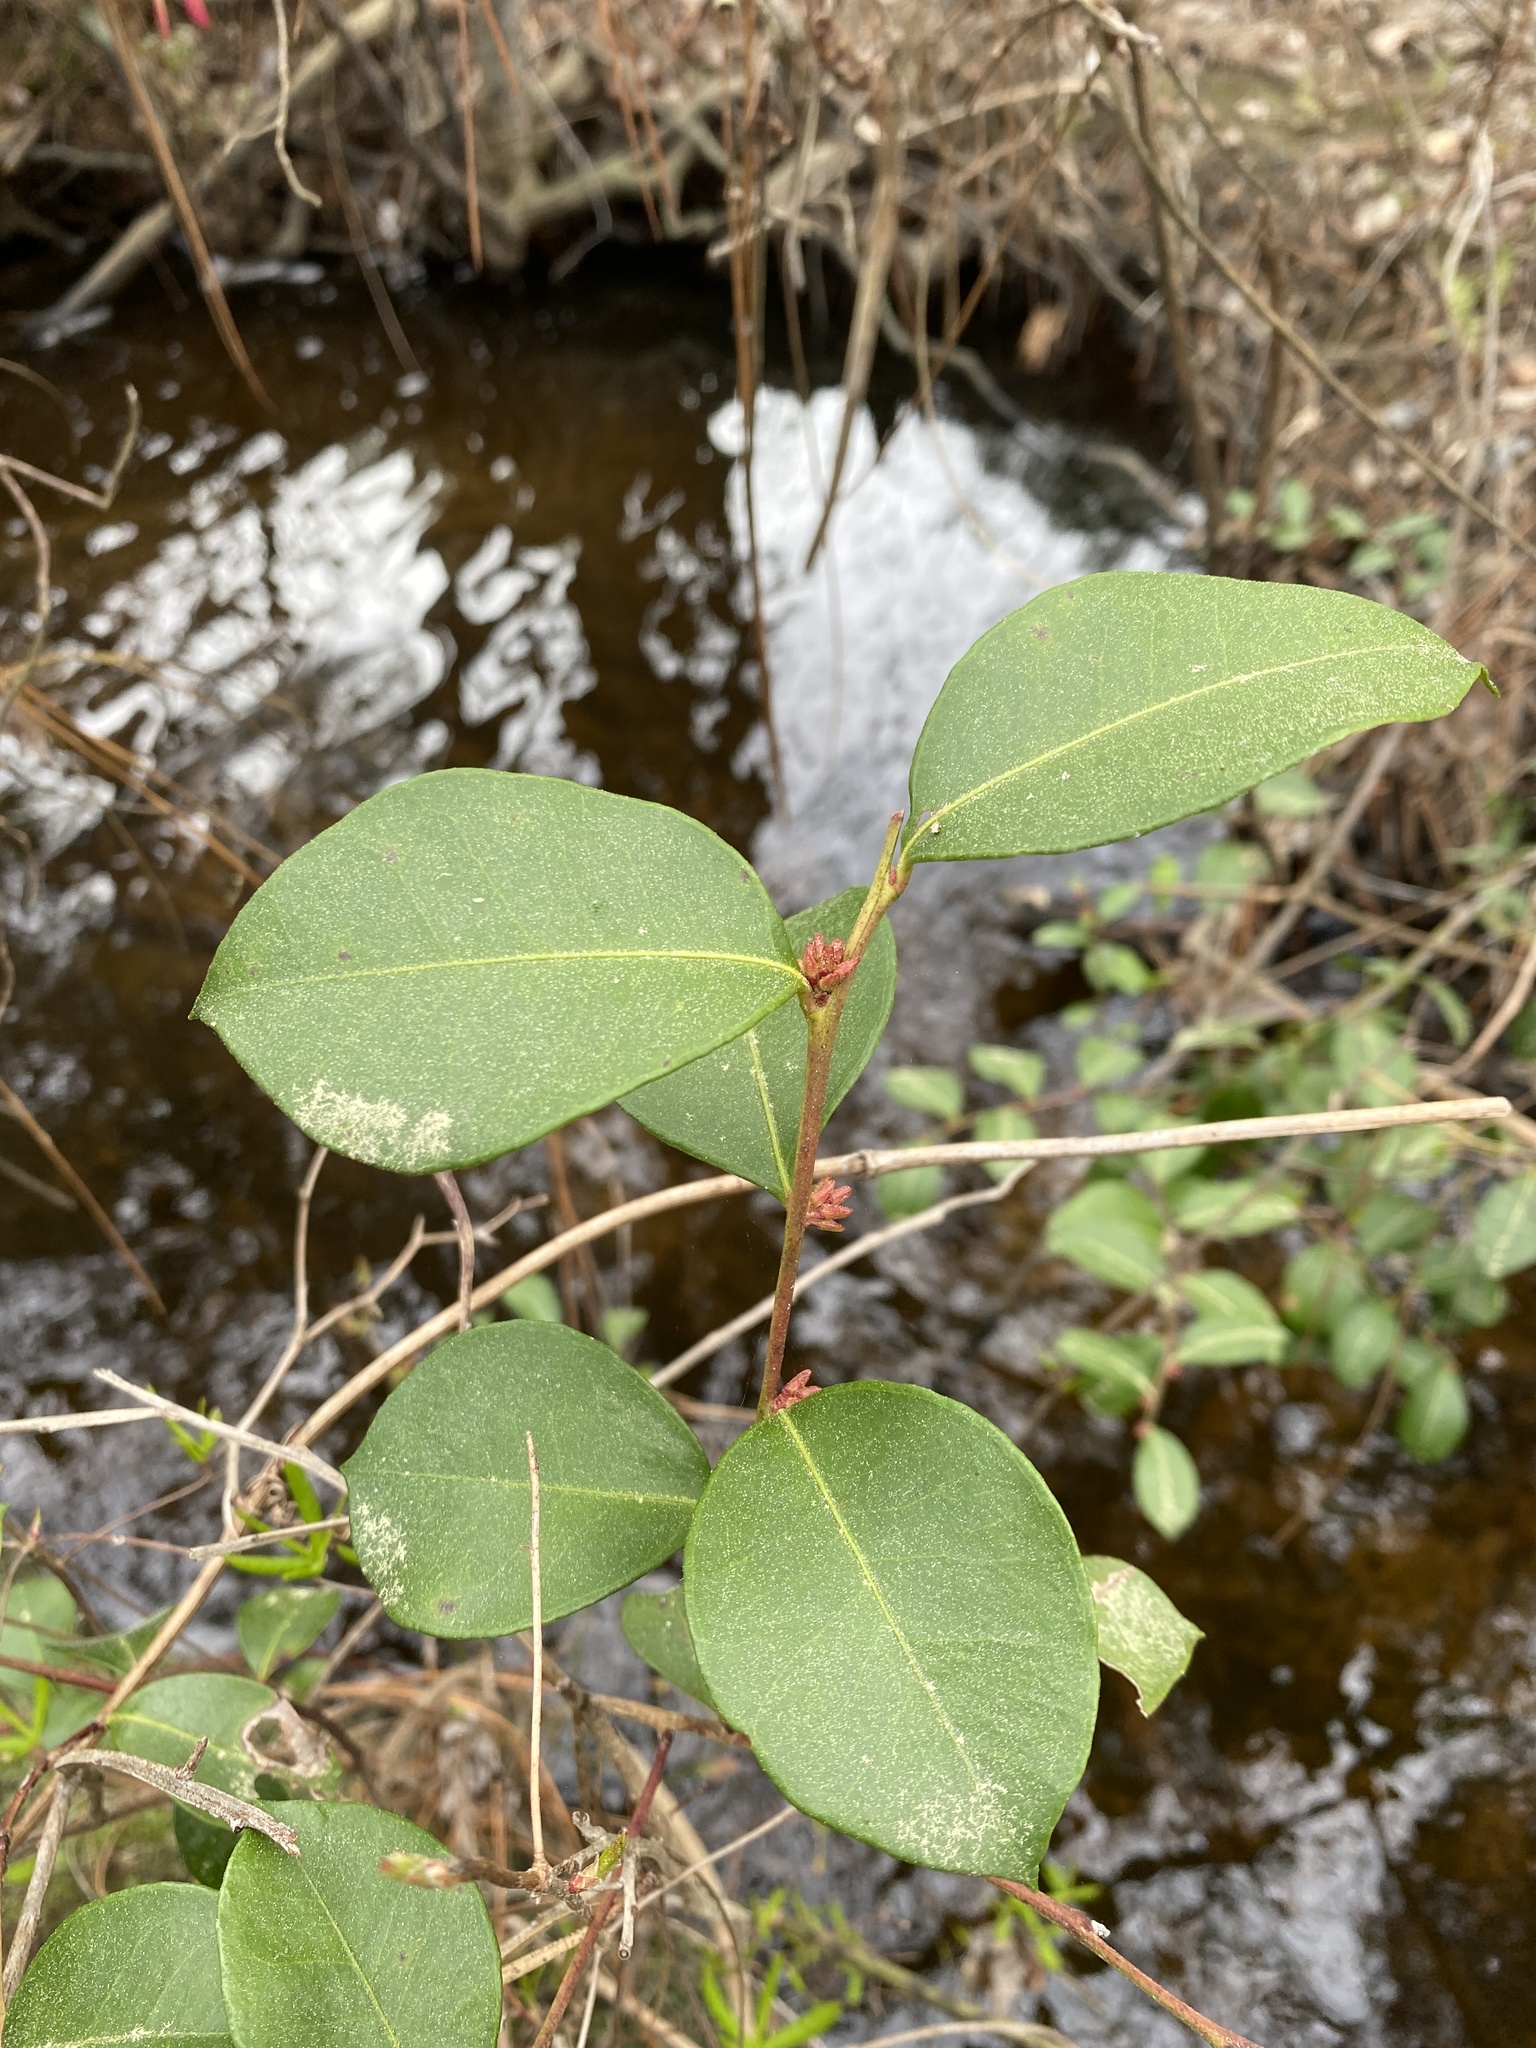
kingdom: Plantae
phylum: Tracheophyta
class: Magnoliopsida
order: Ericales
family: Ericaceae
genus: Lyonia
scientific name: Lyonia lucida
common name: Fetterbush
